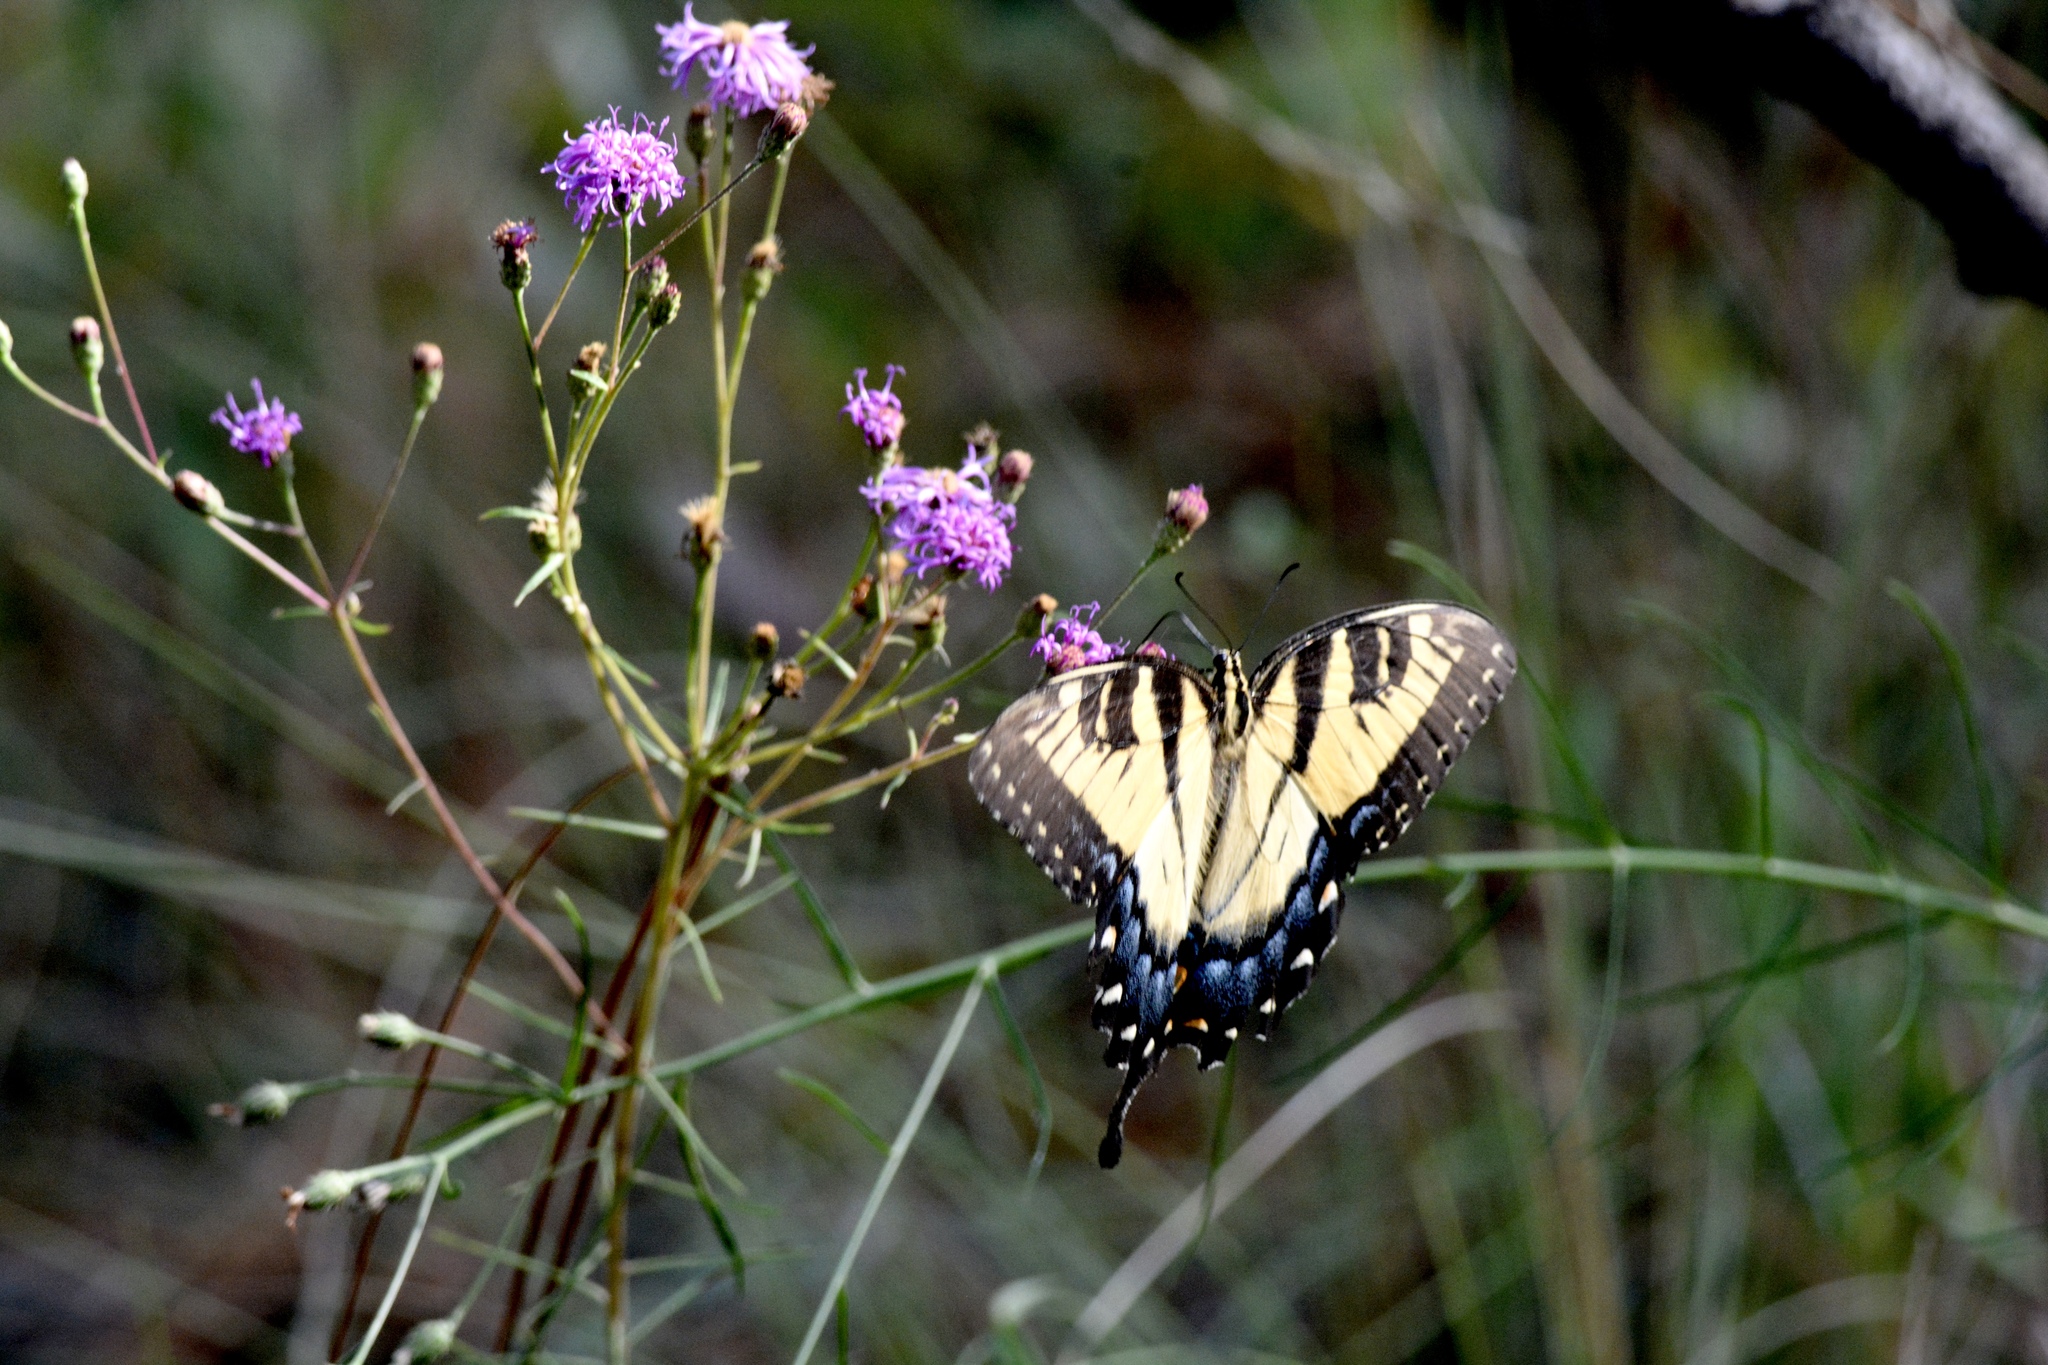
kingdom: Animalia
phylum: Arthropoda
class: Insecta
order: Lepidoptera
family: Papilionidae
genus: Papilio
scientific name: Papilio glaucus
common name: Tiger swallowtail
